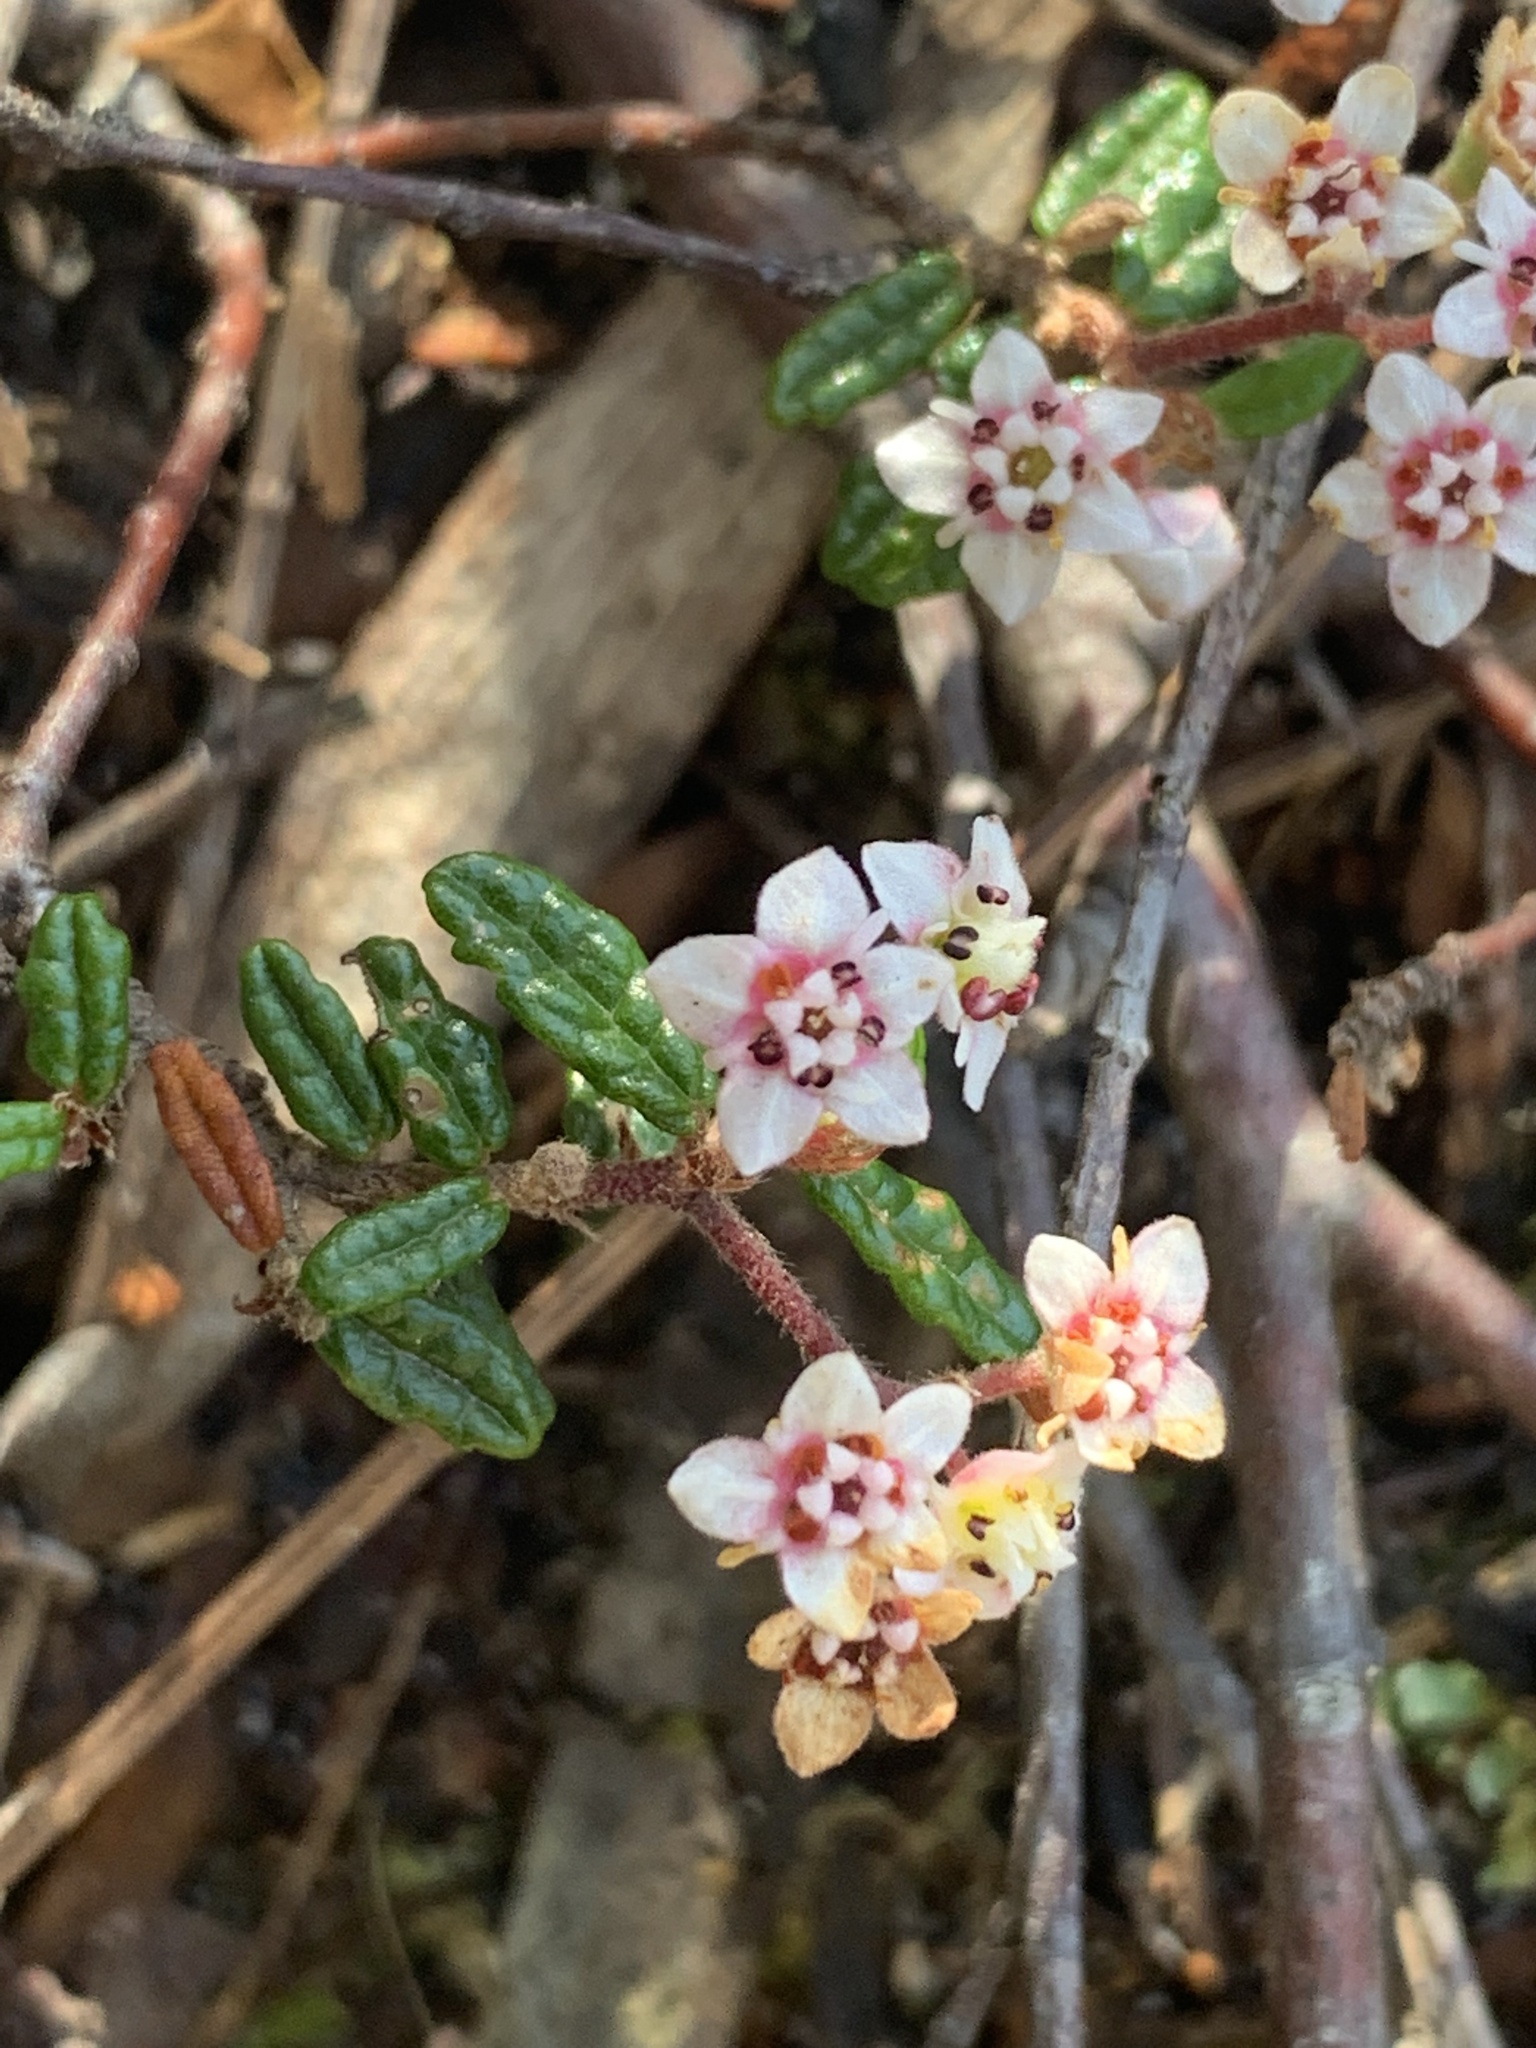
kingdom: Plantae
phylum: Tracheophyta
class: Magnoliopsida
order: Malvales
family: Malvaceae
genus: Commersonia
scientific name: Commersonia hermanniifolia
